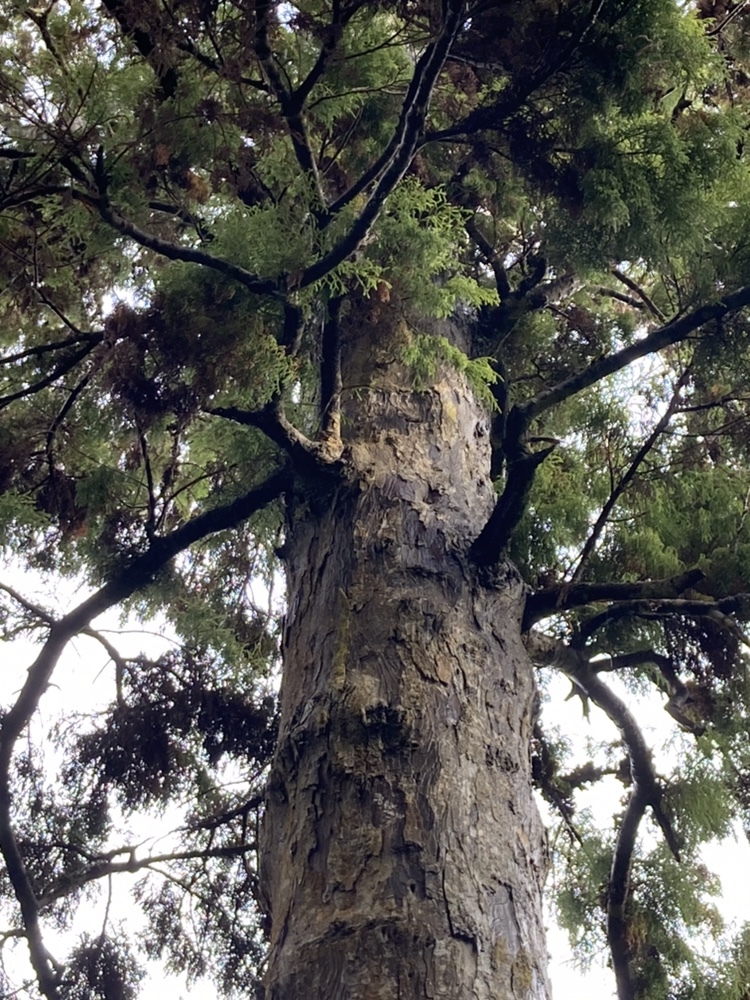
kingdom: Plantae
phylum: Tracheophyta
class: Pinopsida
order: Pinales
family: Podocarpaceae
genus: Dacrydium
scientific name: Dacrydium cupressinum
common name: Red pine
